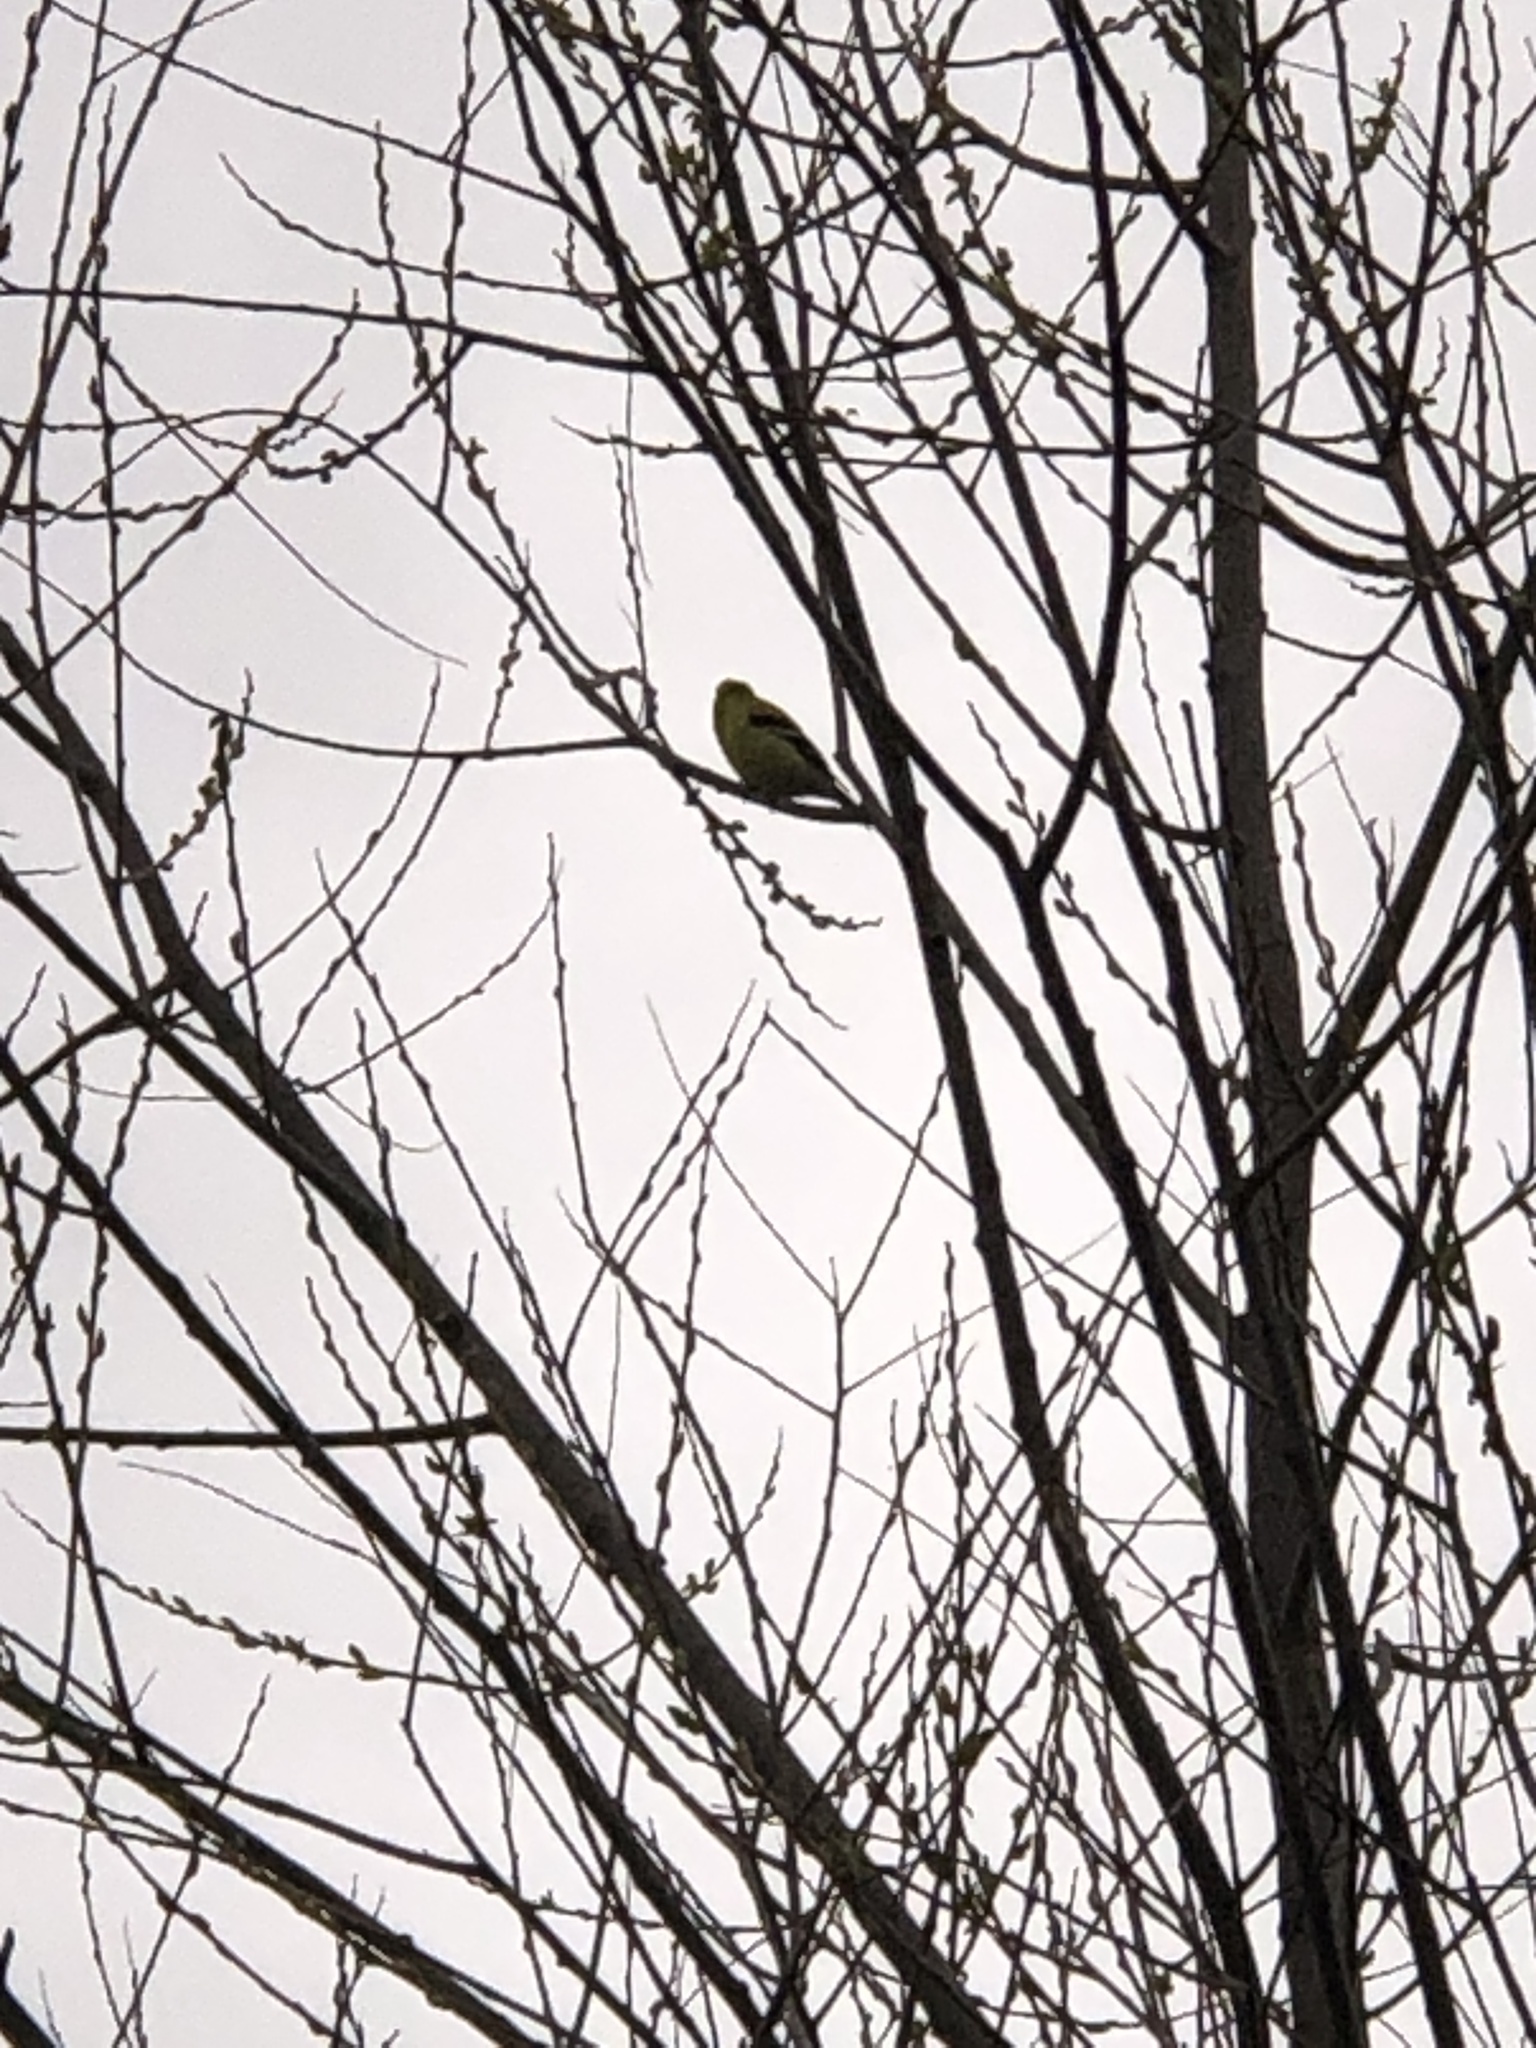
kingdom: Animalia
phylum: Chordata
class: Aves
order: Passeriformes
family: Fringillidae
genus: Spinus
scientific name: Spinus tristis
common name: American goldfinch
